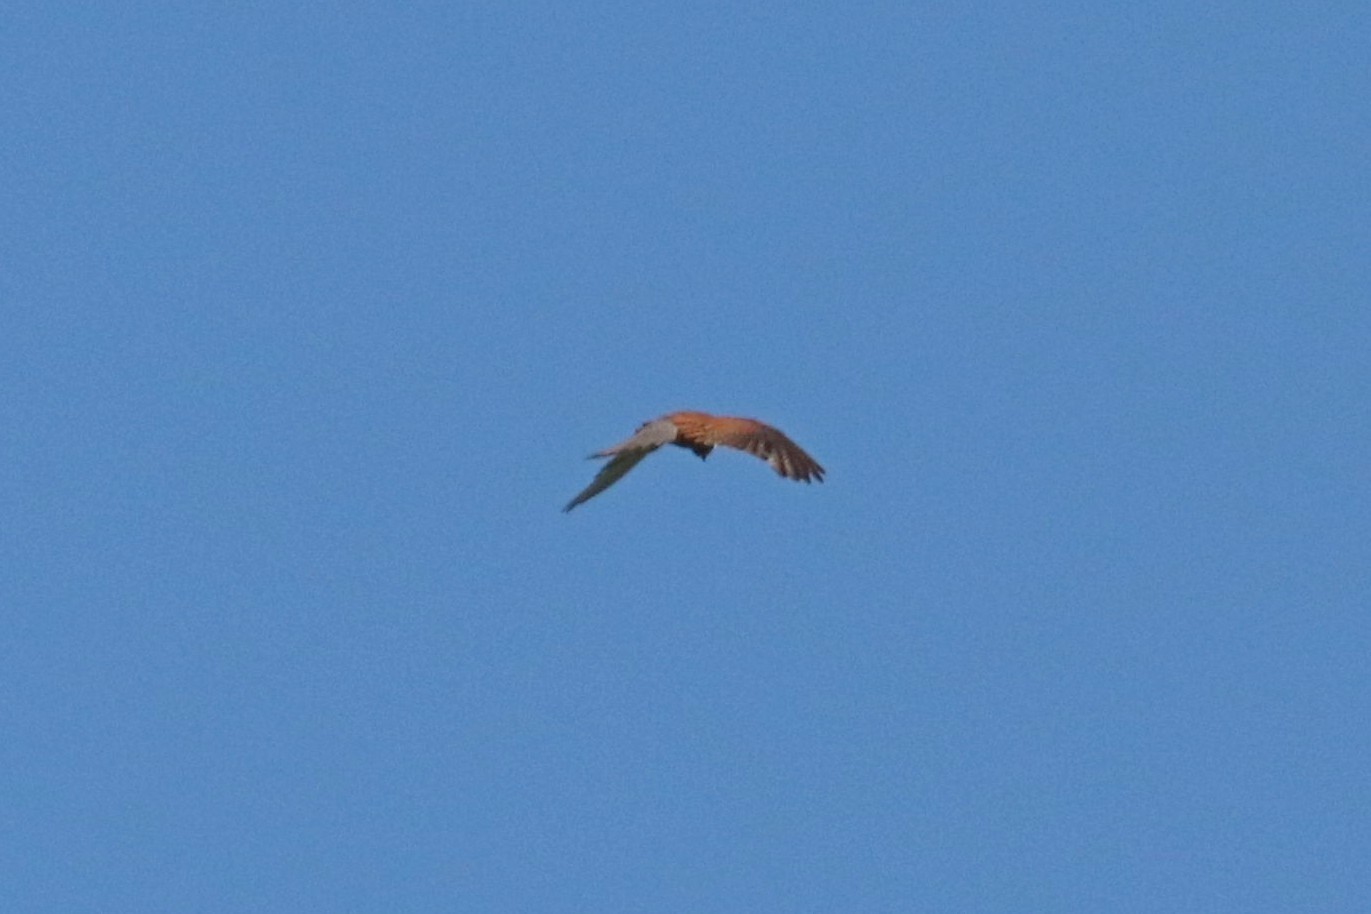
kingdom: Animalia
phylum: Chordata
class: Aves
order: Falconiformes
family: Falconidae
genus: Falco
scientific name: Falco tinnunculus
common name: Common kestrel
